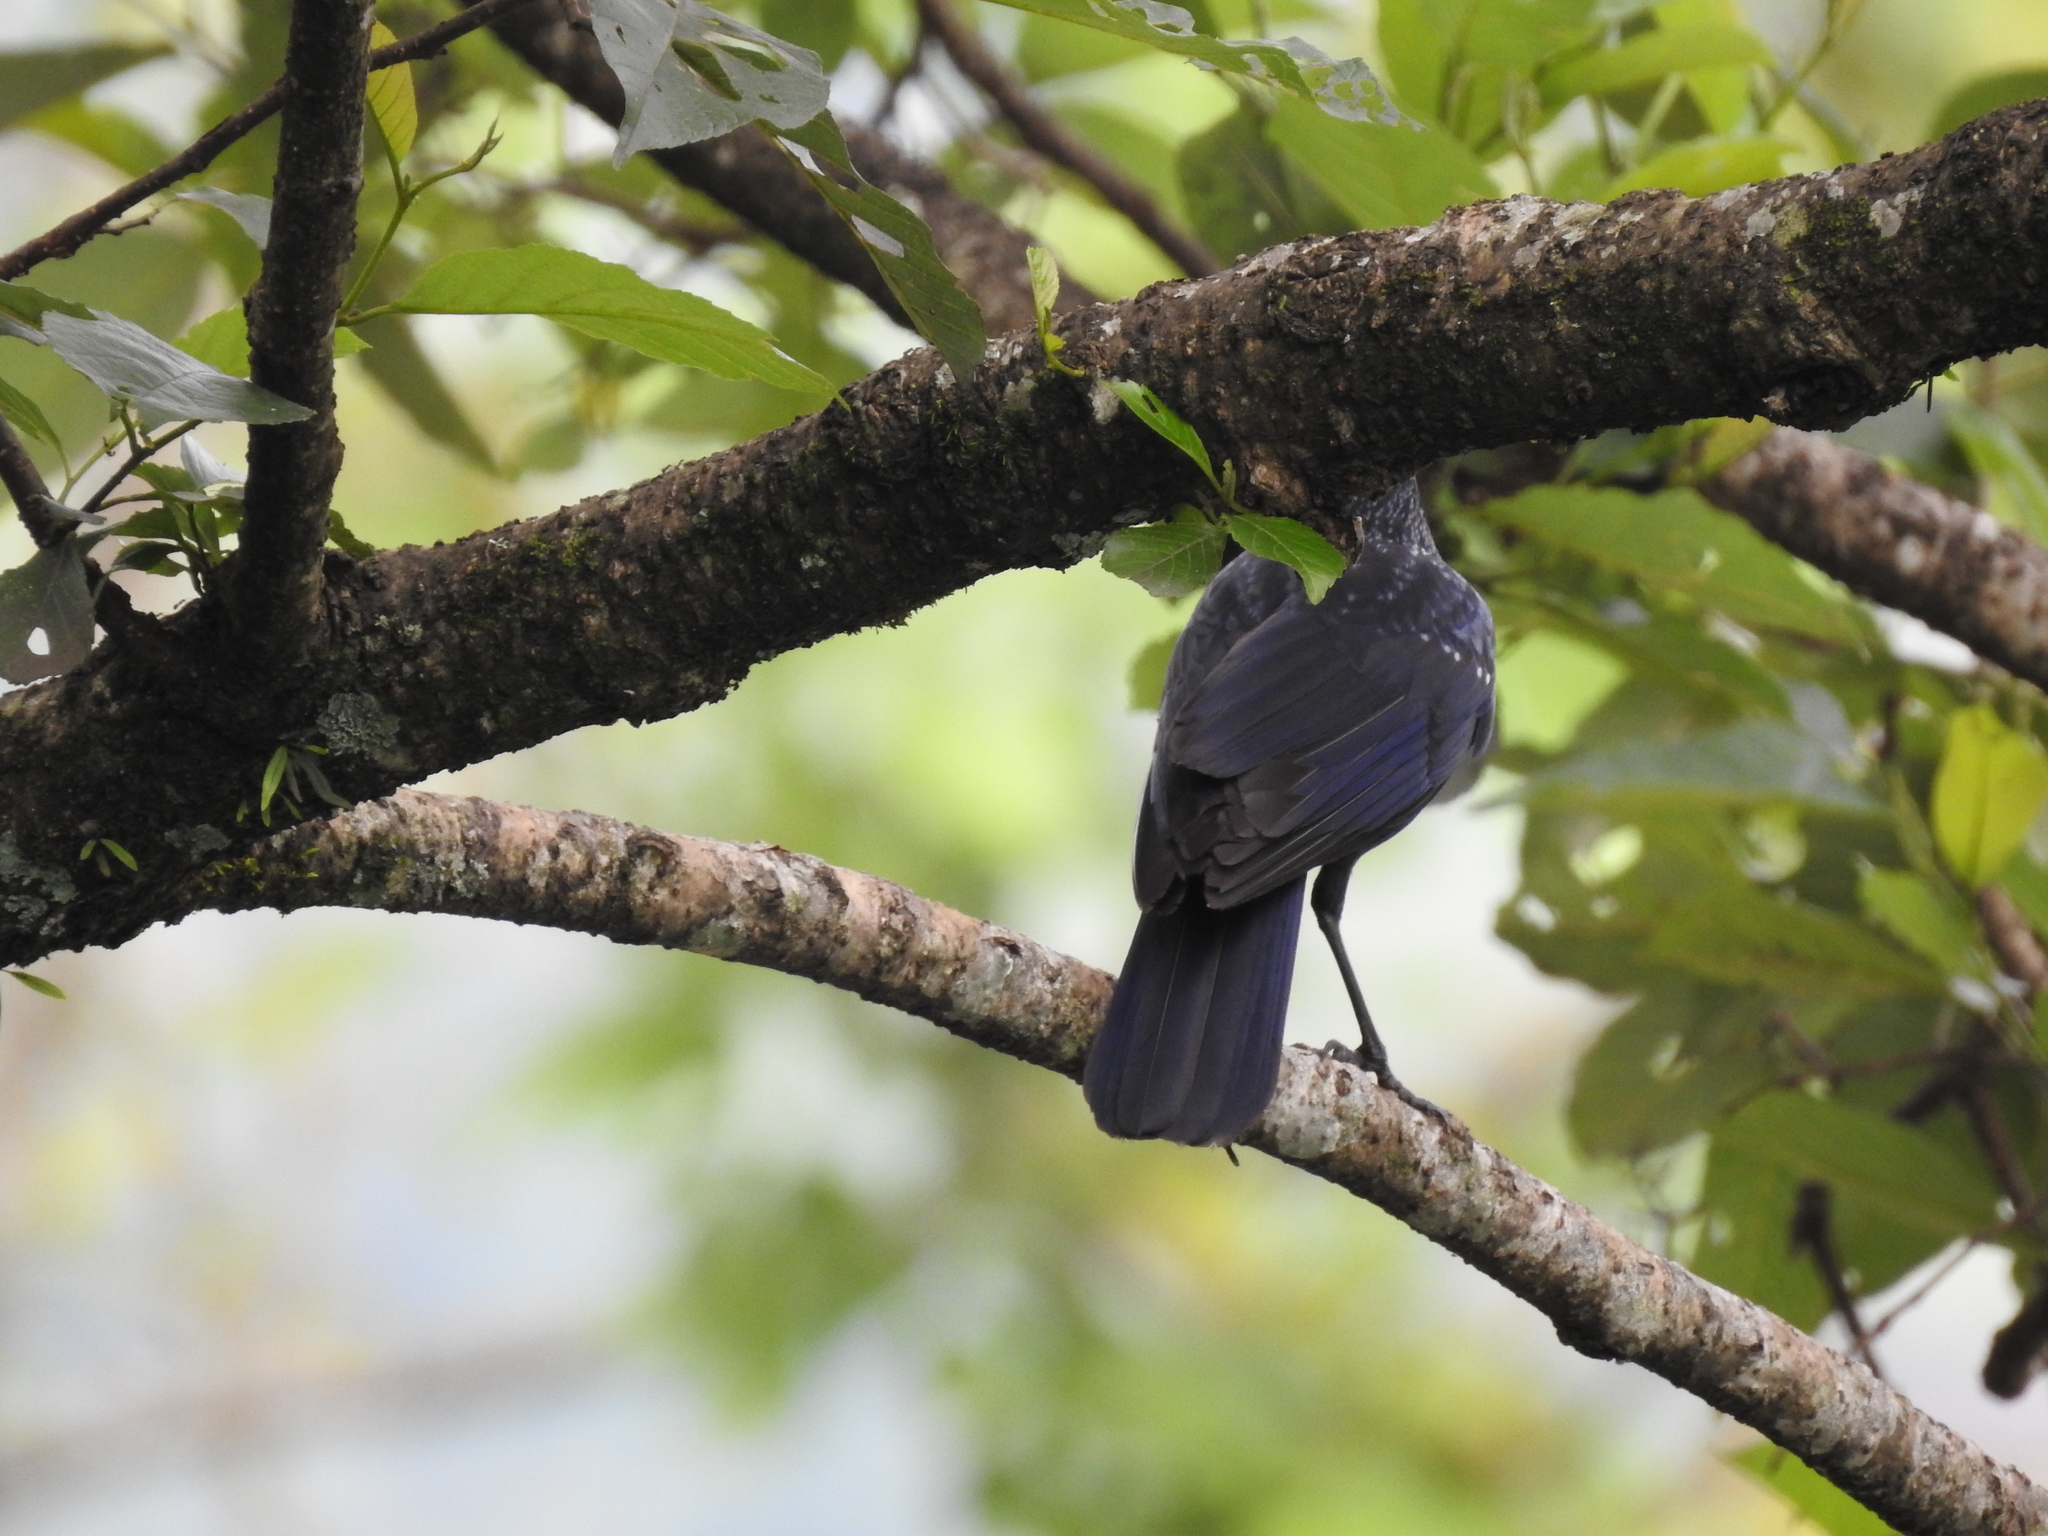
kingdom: Animalia
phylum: Chordata
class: Aves
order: Passeriformes
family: Muscicapidae
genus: Myophonus
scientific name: Myophonus caeruleus
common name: Blue whistling-thrush
